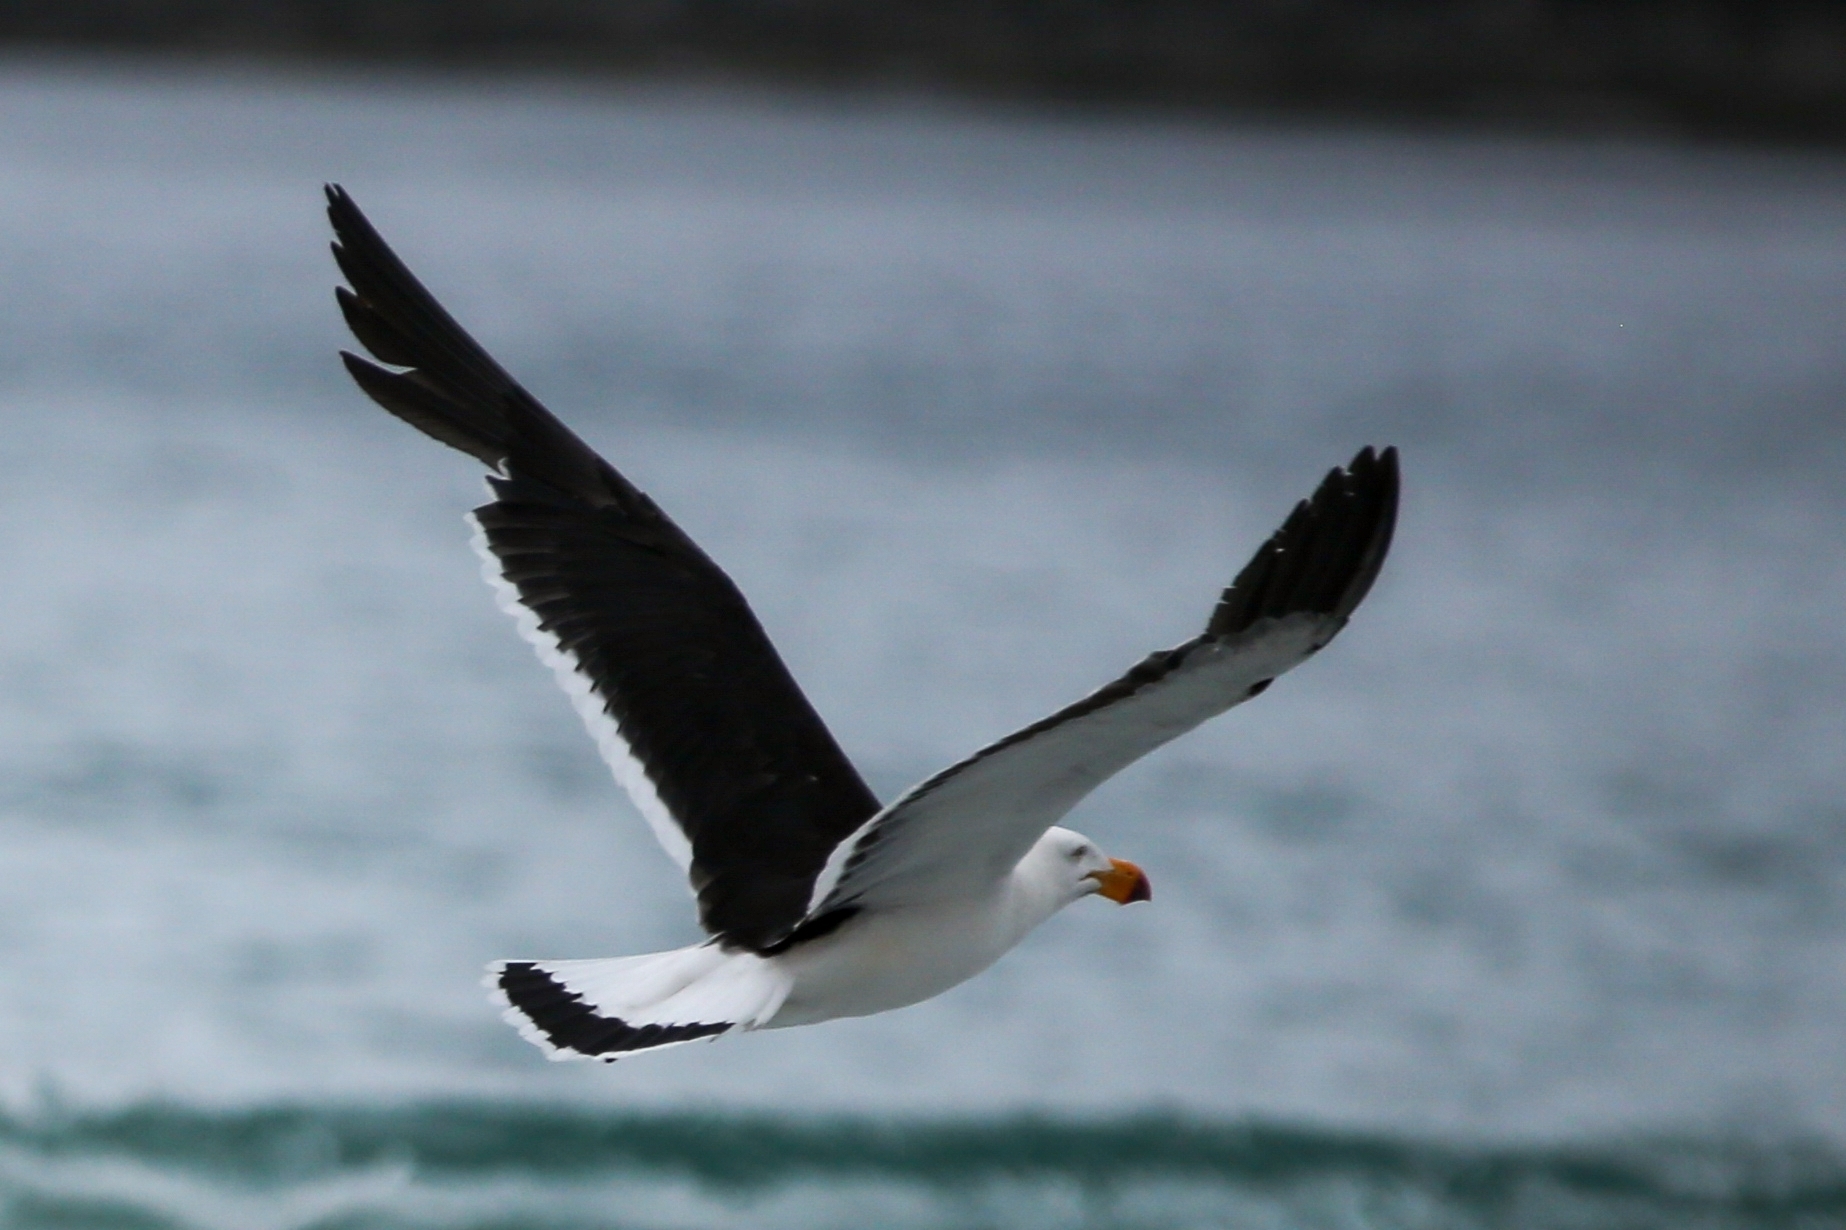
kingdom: Animalia
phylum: Chordata
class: Aves
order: Charadriiformes
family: Laridae
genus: Larus
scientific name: Larus pacificus
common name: Pacific gull
